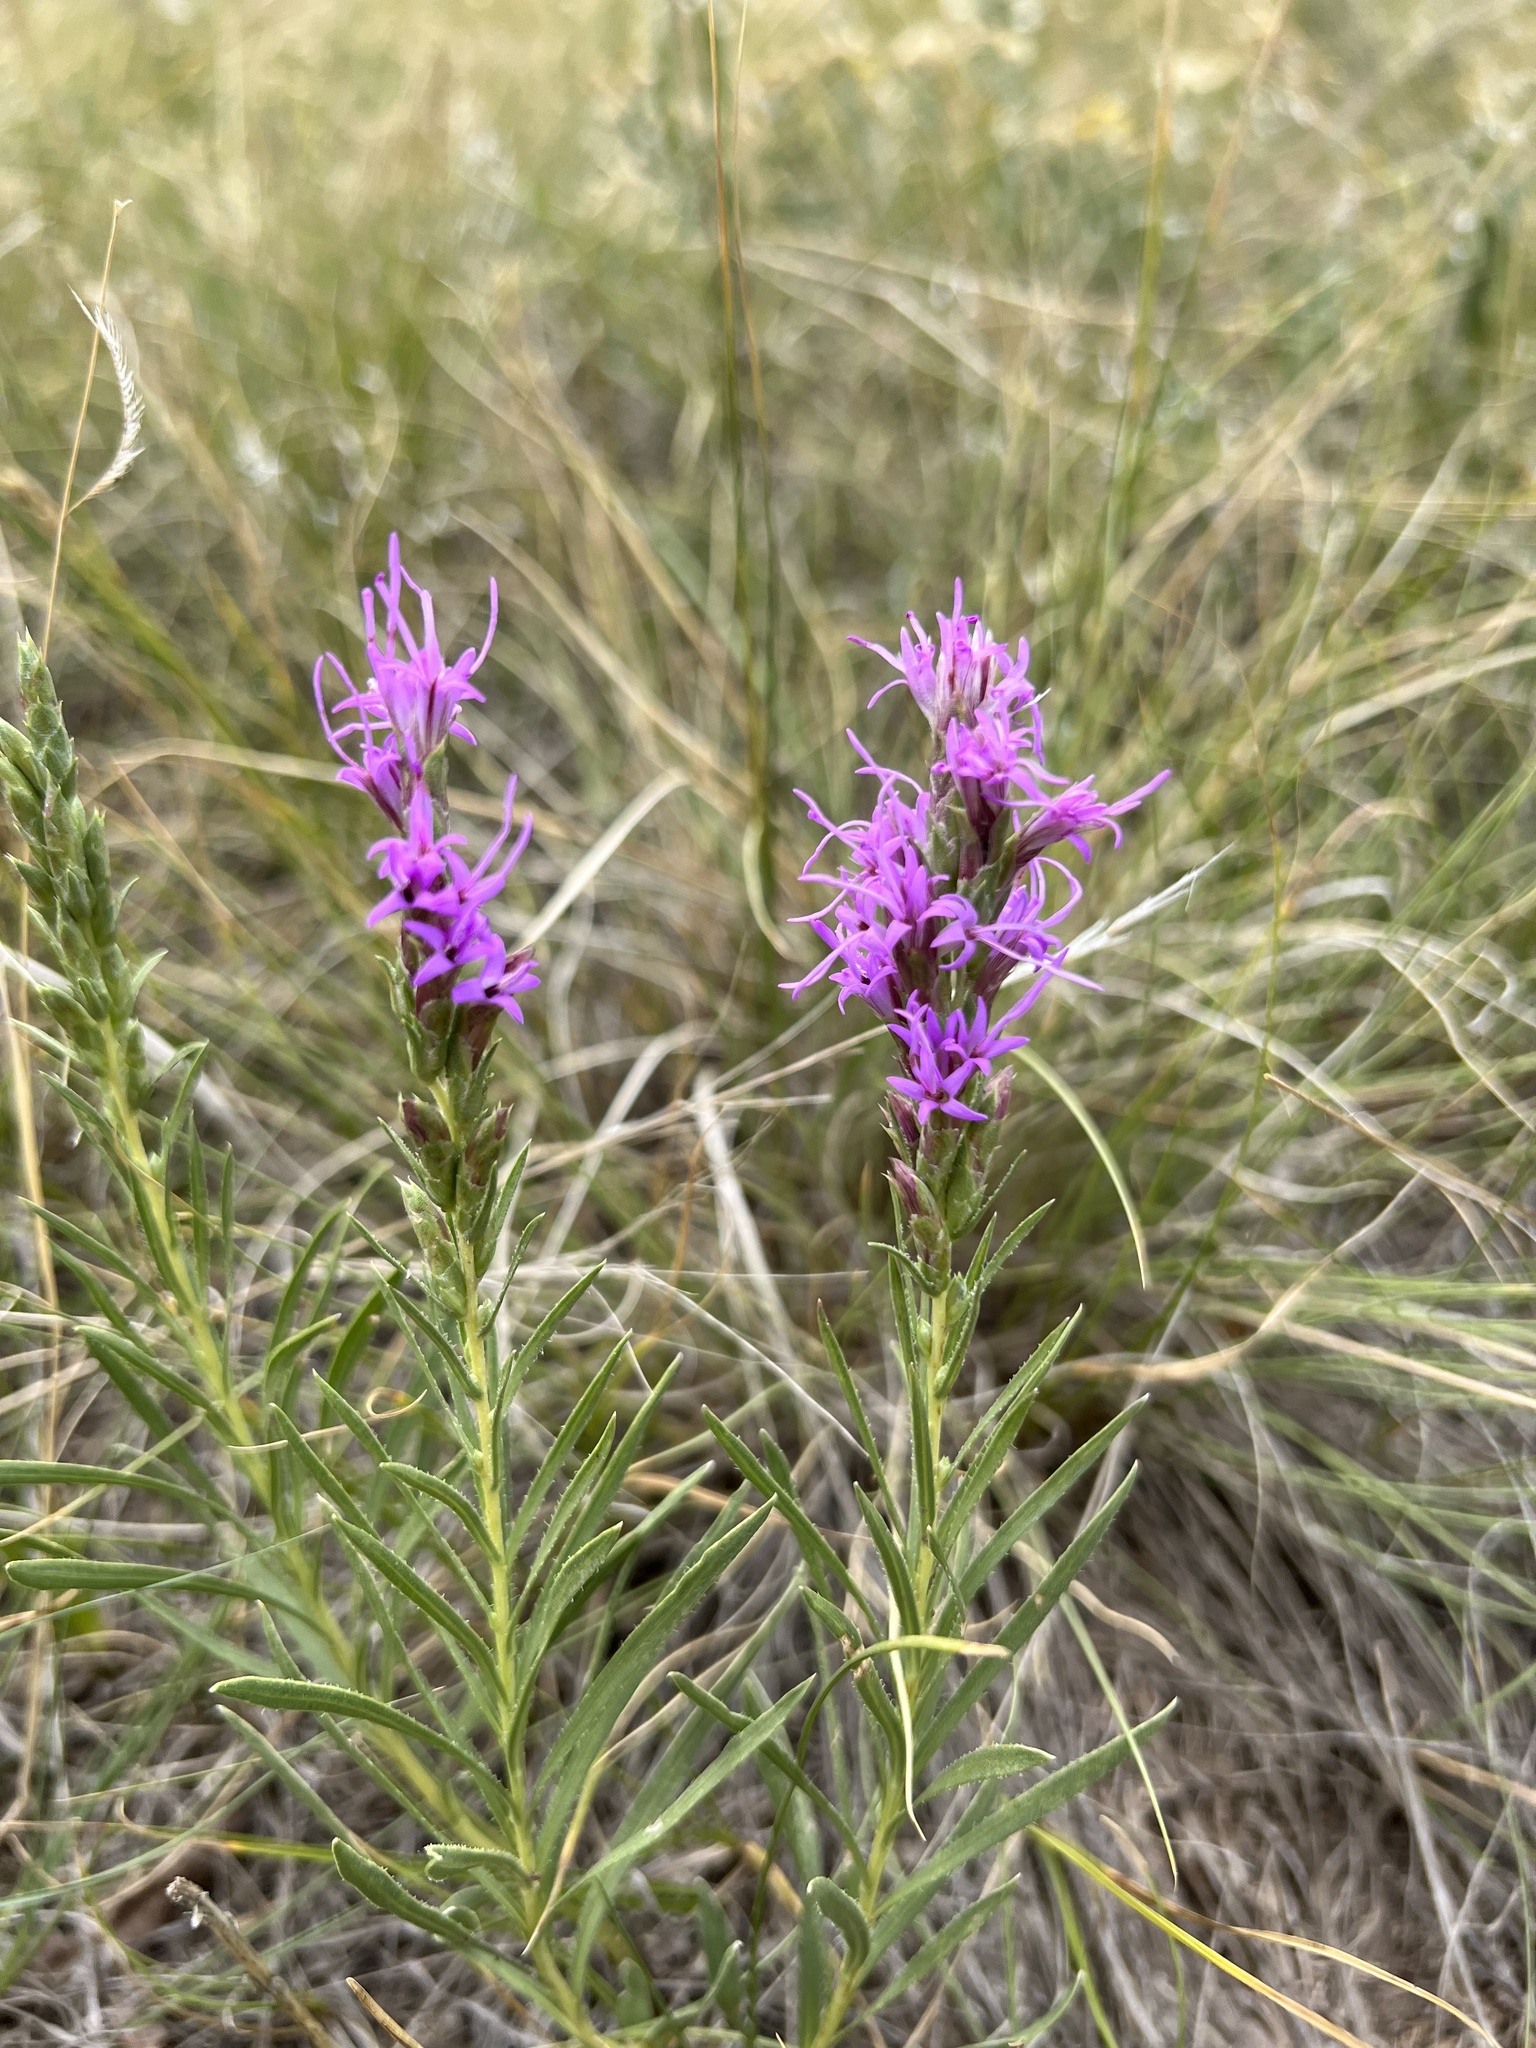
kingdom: Plantae
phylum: Tracheophyta
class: Magnoliopsida
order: Asterales
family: Asteraceae
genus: Liatris
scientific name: Liatris punctata
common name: Dotted gayfeather
